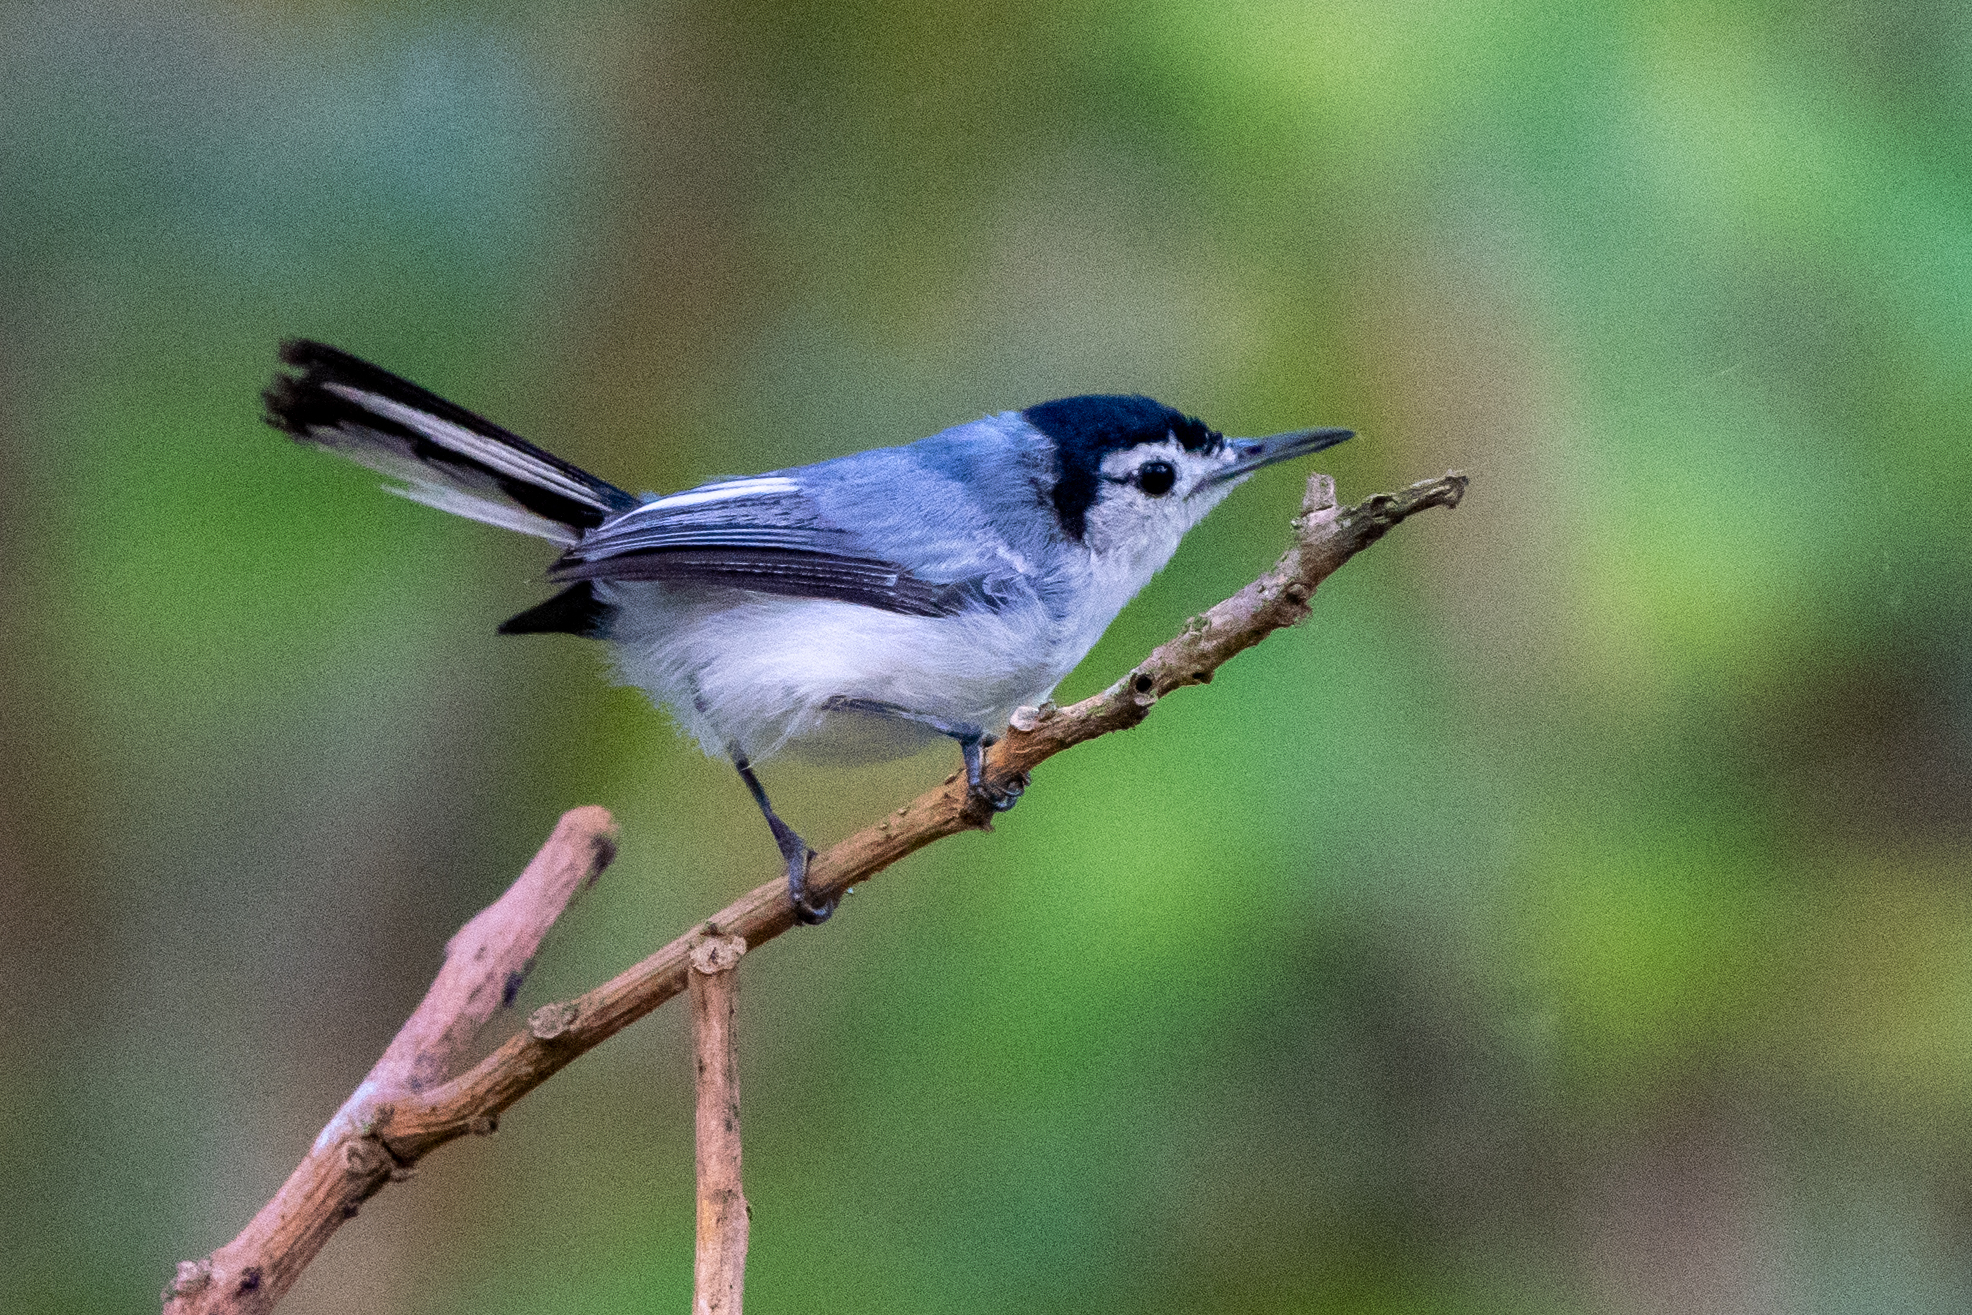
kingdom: Animalia
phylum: Chordata
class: Aves
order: Passeriformes
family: Polioptilidae
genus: Polioptila
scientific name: Polioptila plumbea
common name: Tropical gnatcatcher
